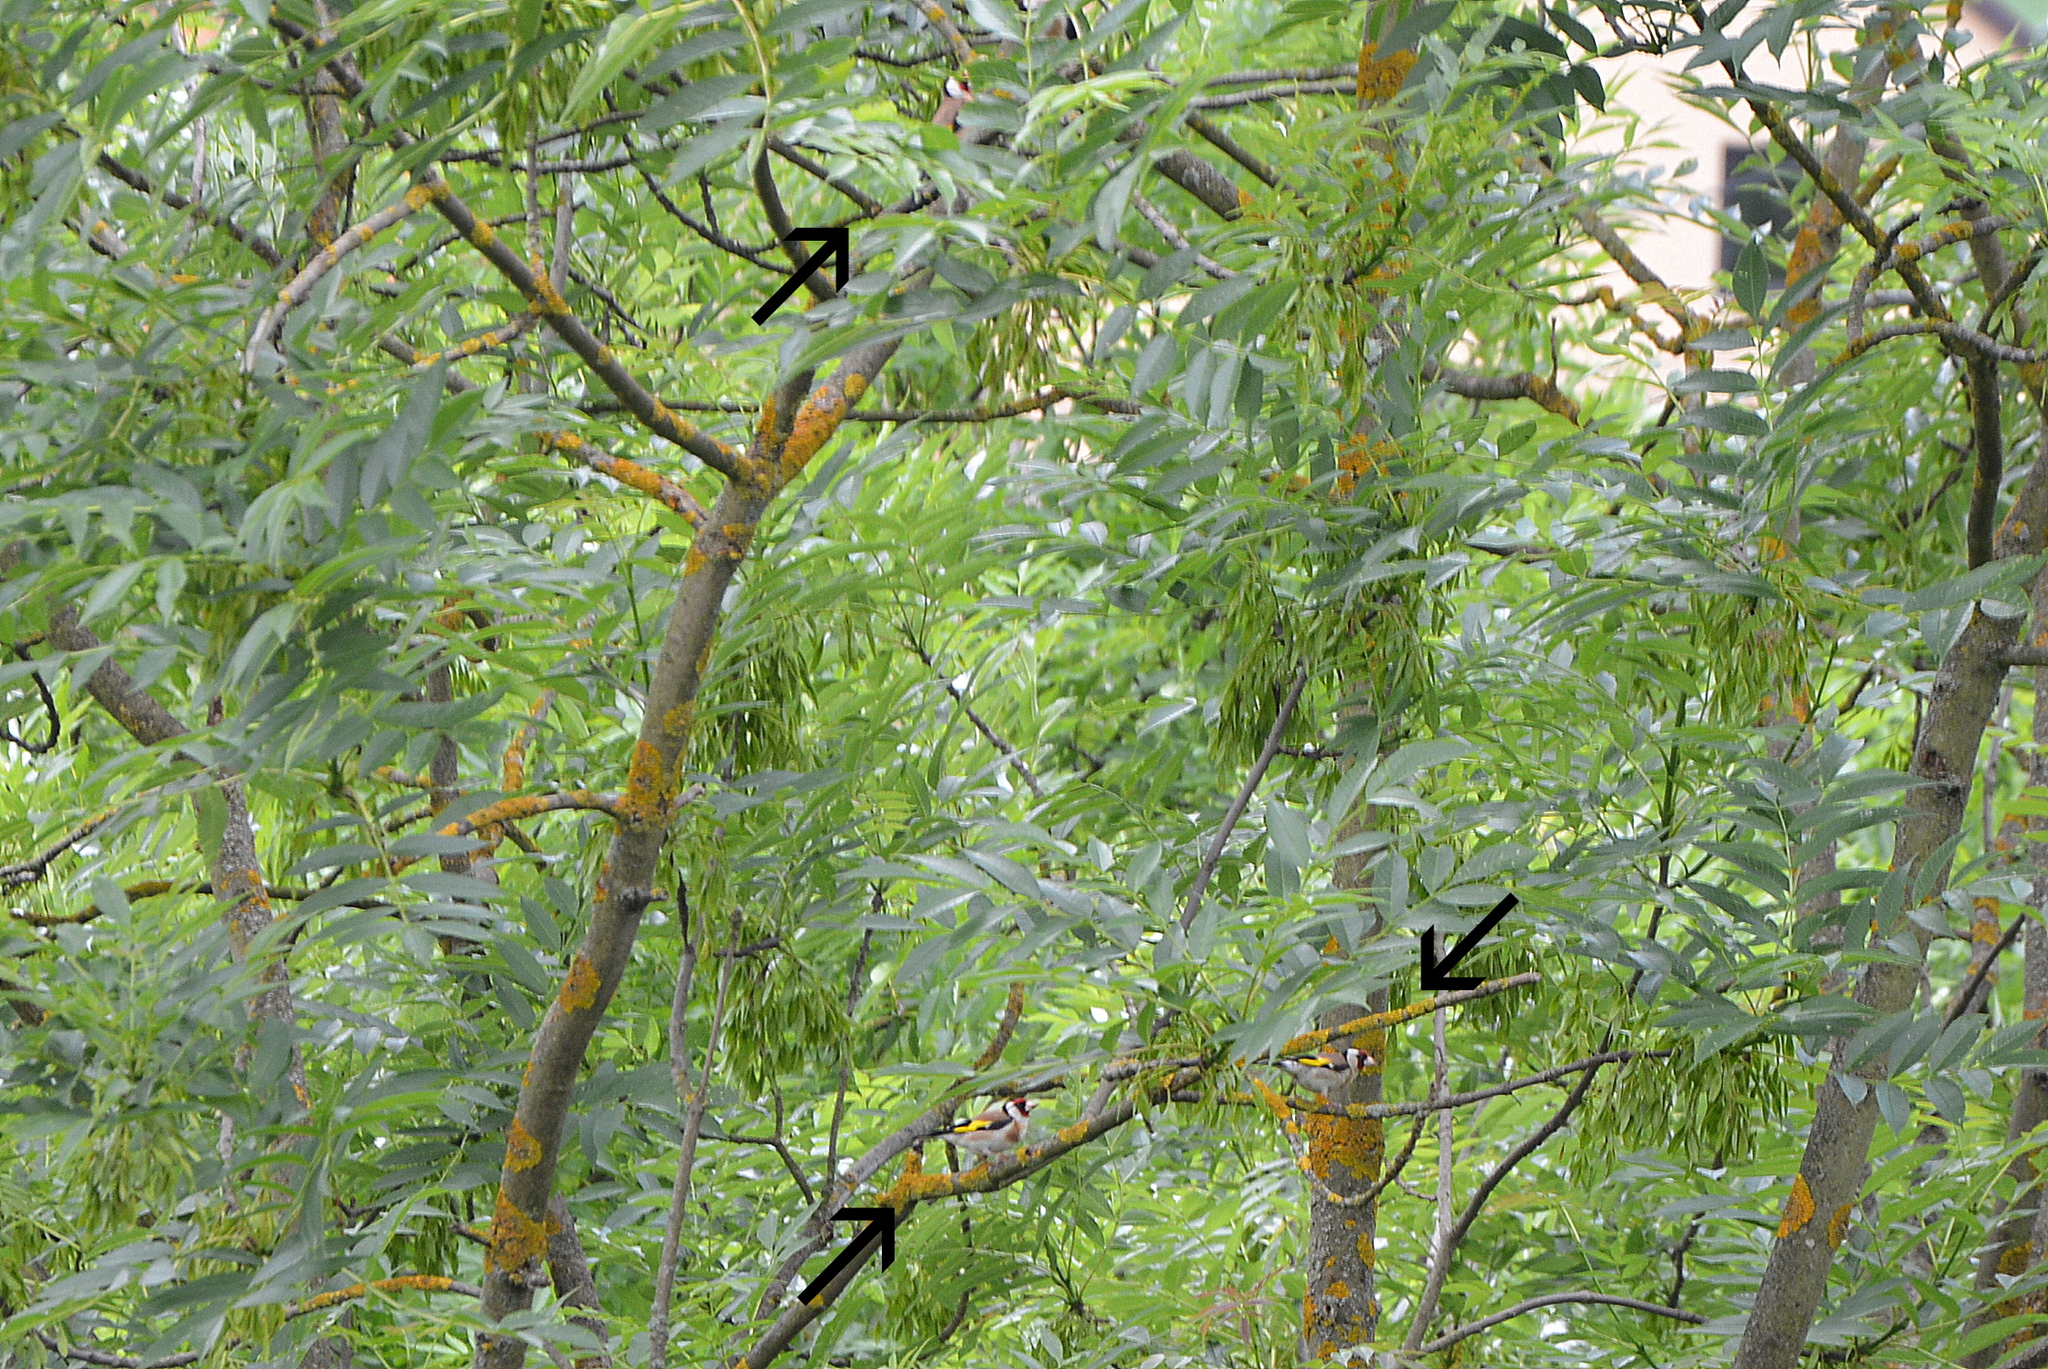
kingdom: Animalia
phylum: Chordata
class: Aves
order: Passeriformes
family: Fringillidae
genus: Carduelis
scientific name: Carduelis carduelis
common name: European goldfinch
